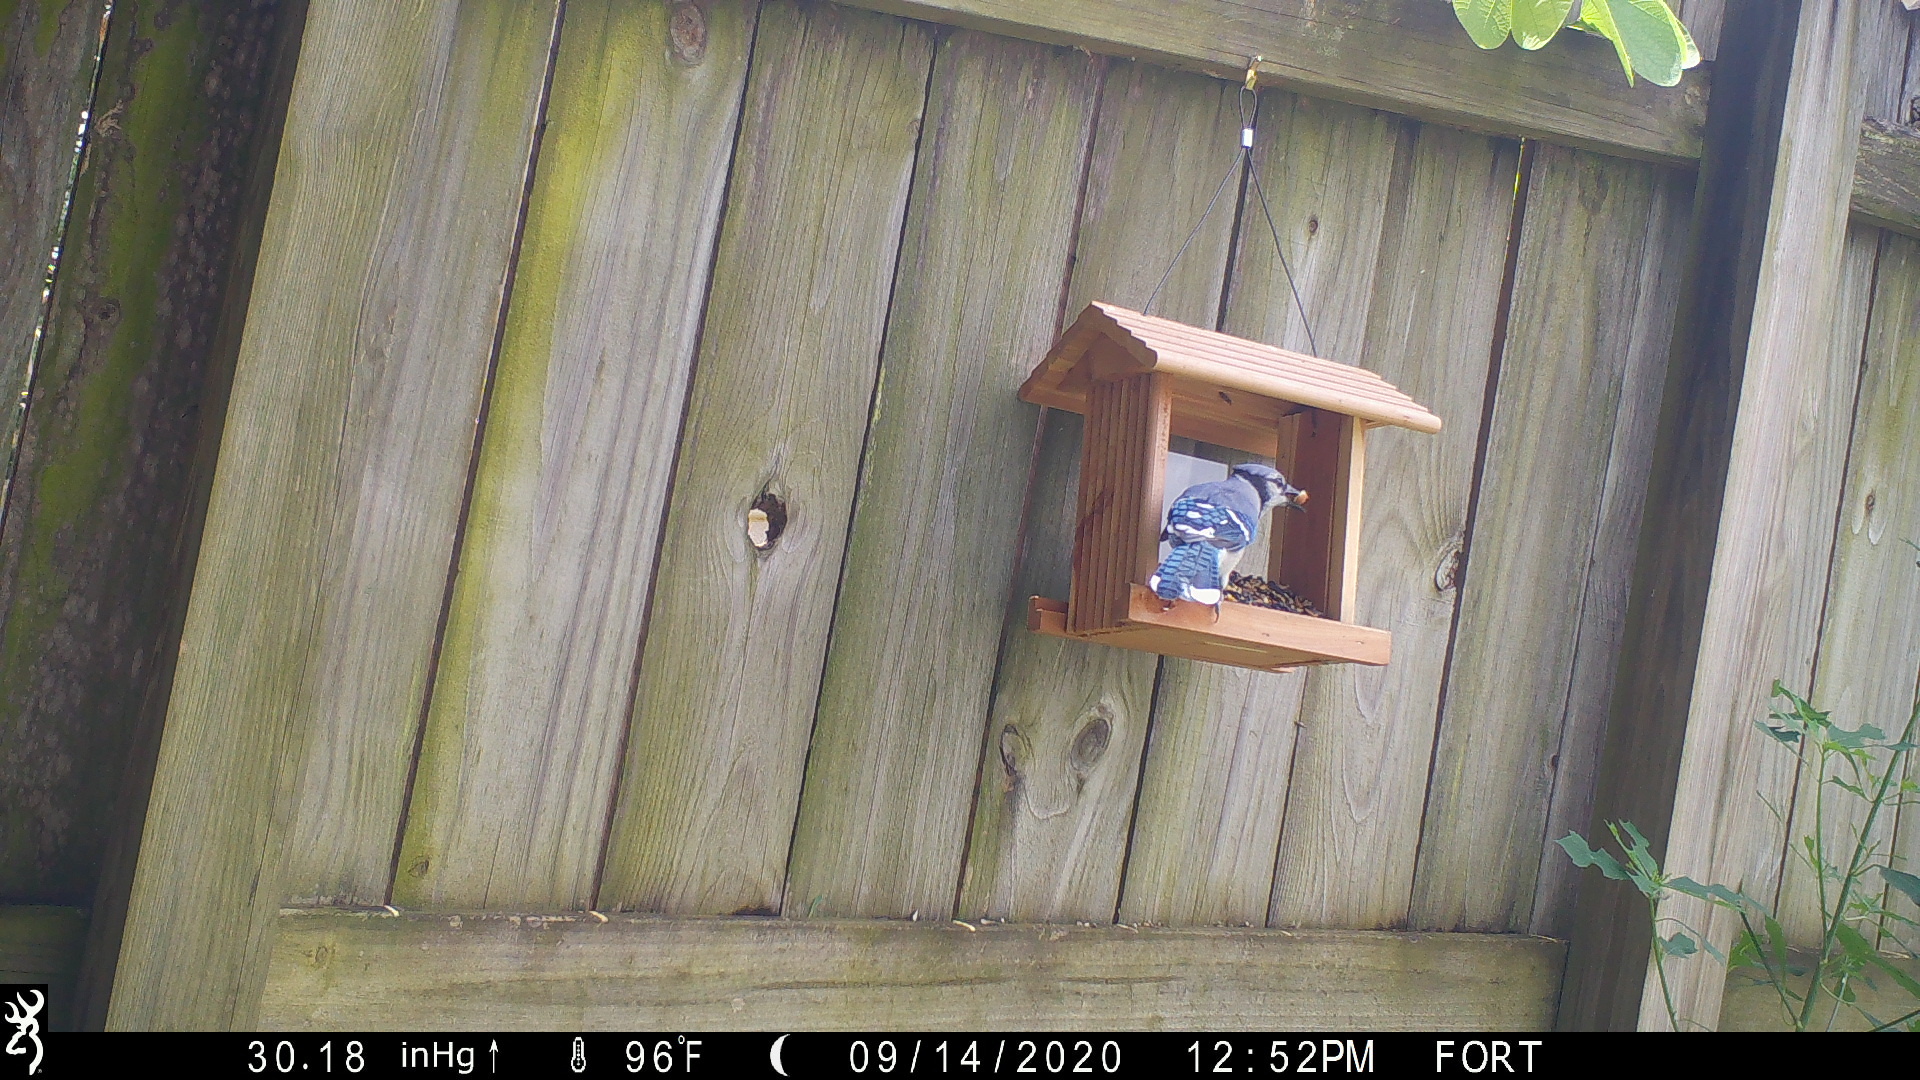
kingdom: Animalia
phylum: Chordata
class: Aves
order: Passeriformes
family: Corvidae
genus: Cyanocitta
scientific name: Cyanocitta cristata
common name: Blue jay
